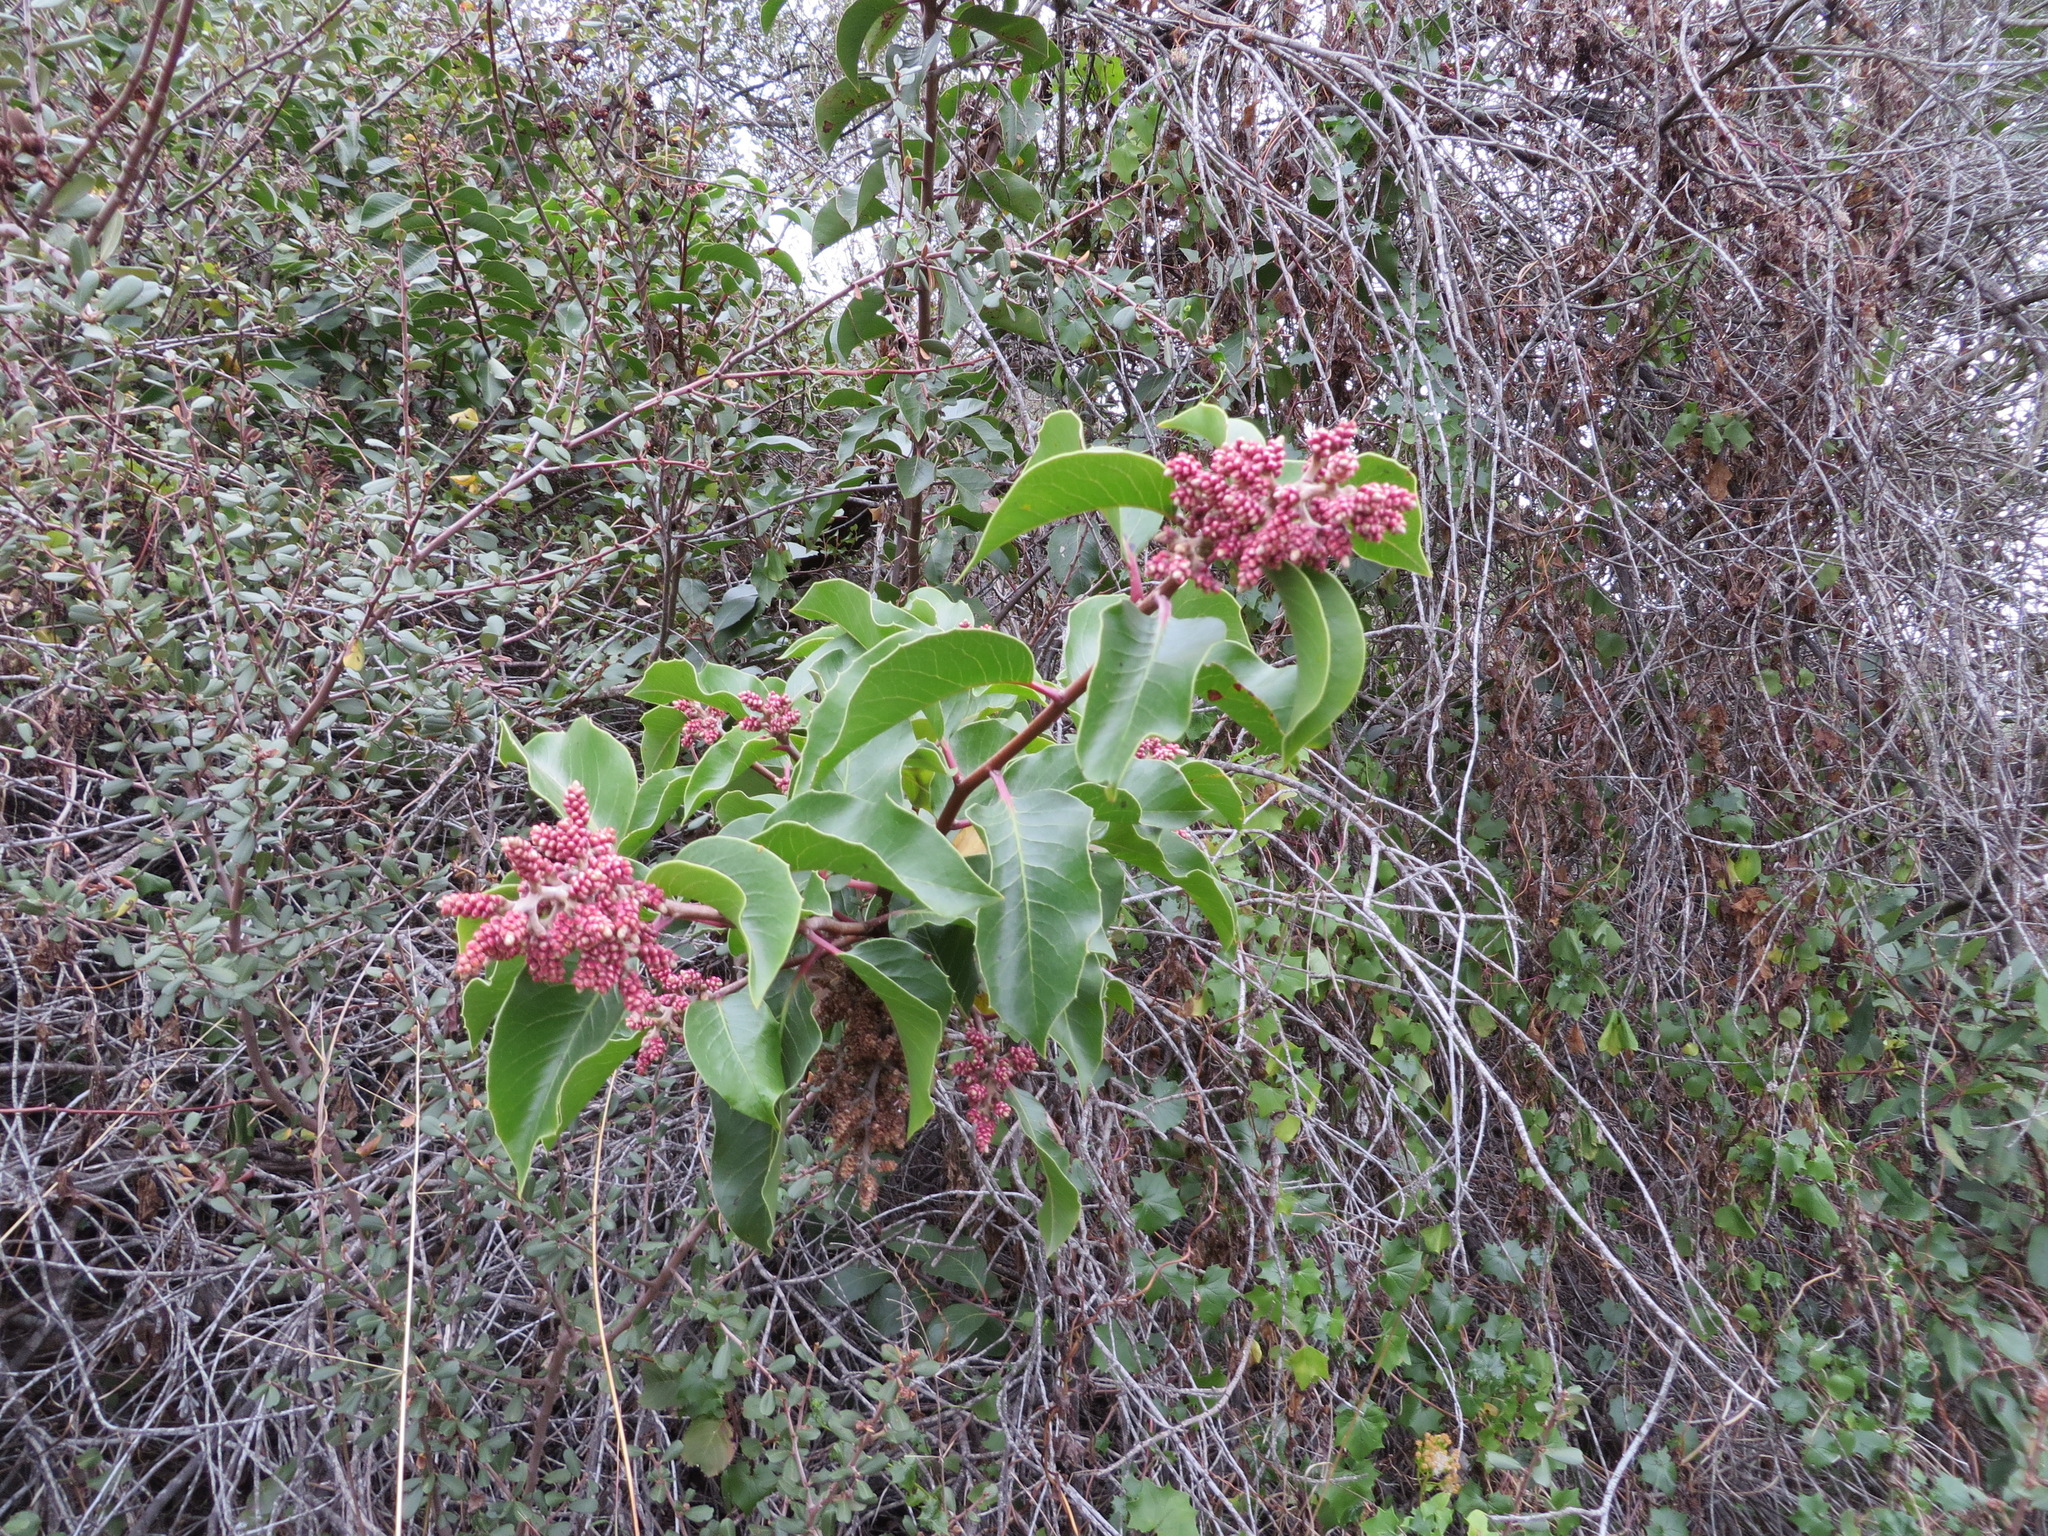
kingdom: Plantae
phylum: Tracheophyta
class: Magnoliopsida
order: Sapindales
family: Anacardiaceae
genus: Rhus
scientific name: Rhus ovata
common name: Sugar sumac
